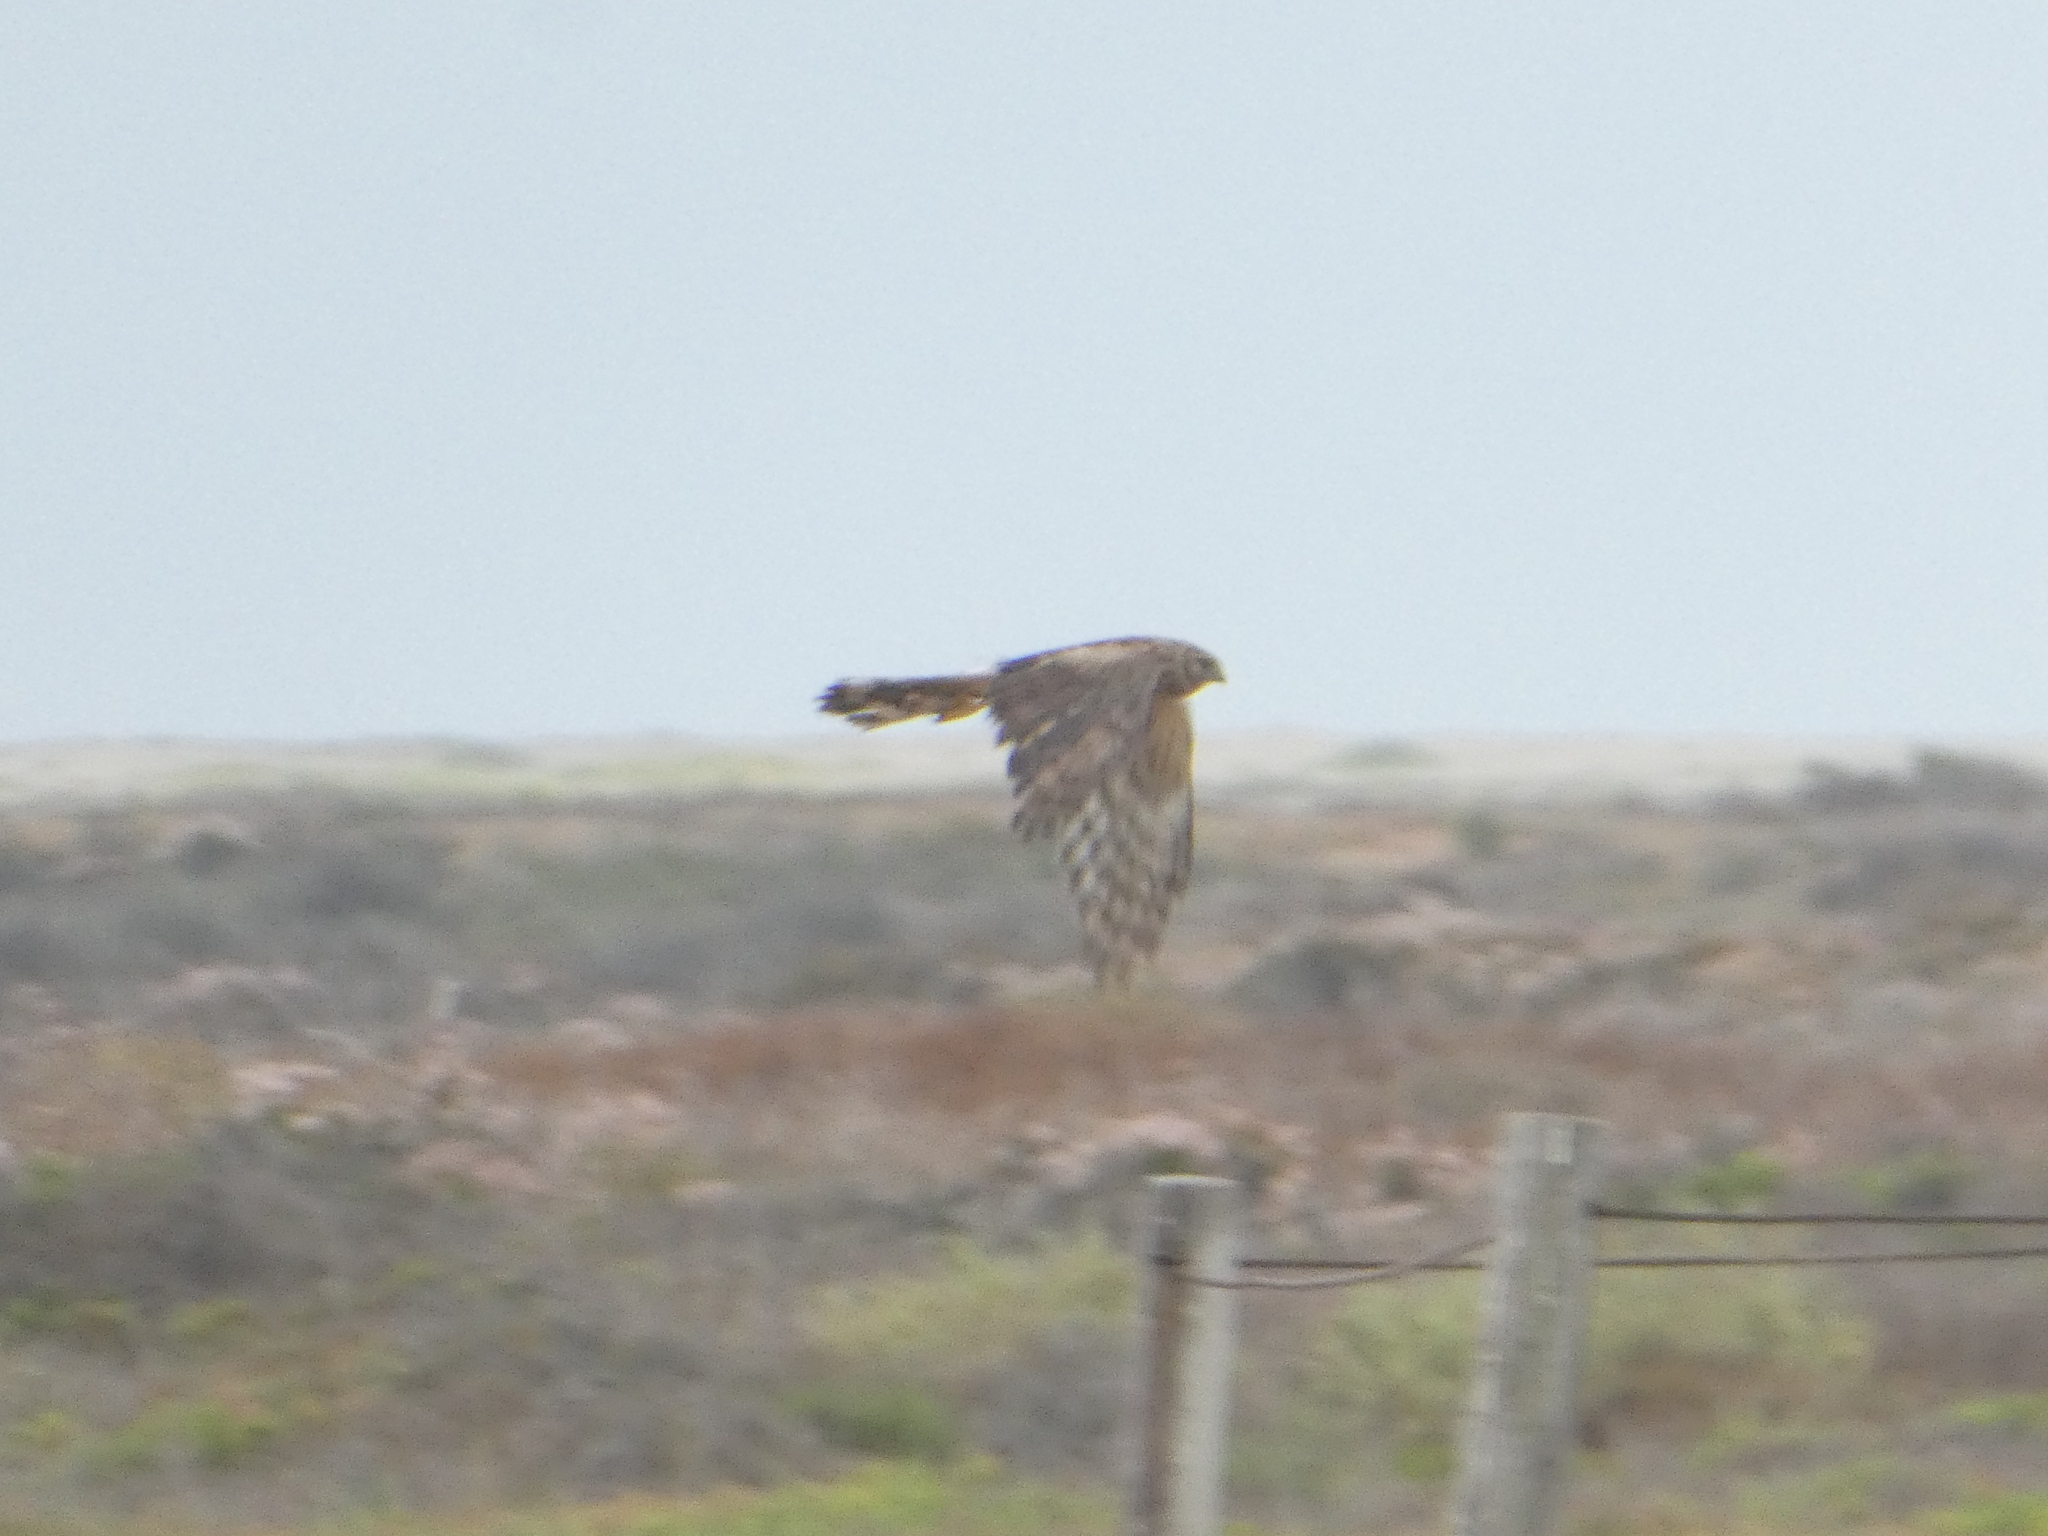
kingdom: Animalia
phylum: Chordata
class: Aves
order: Accipitriformes
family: Accipitridae
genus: Circus
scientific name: Circus cyaneus
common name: Hen harrier
